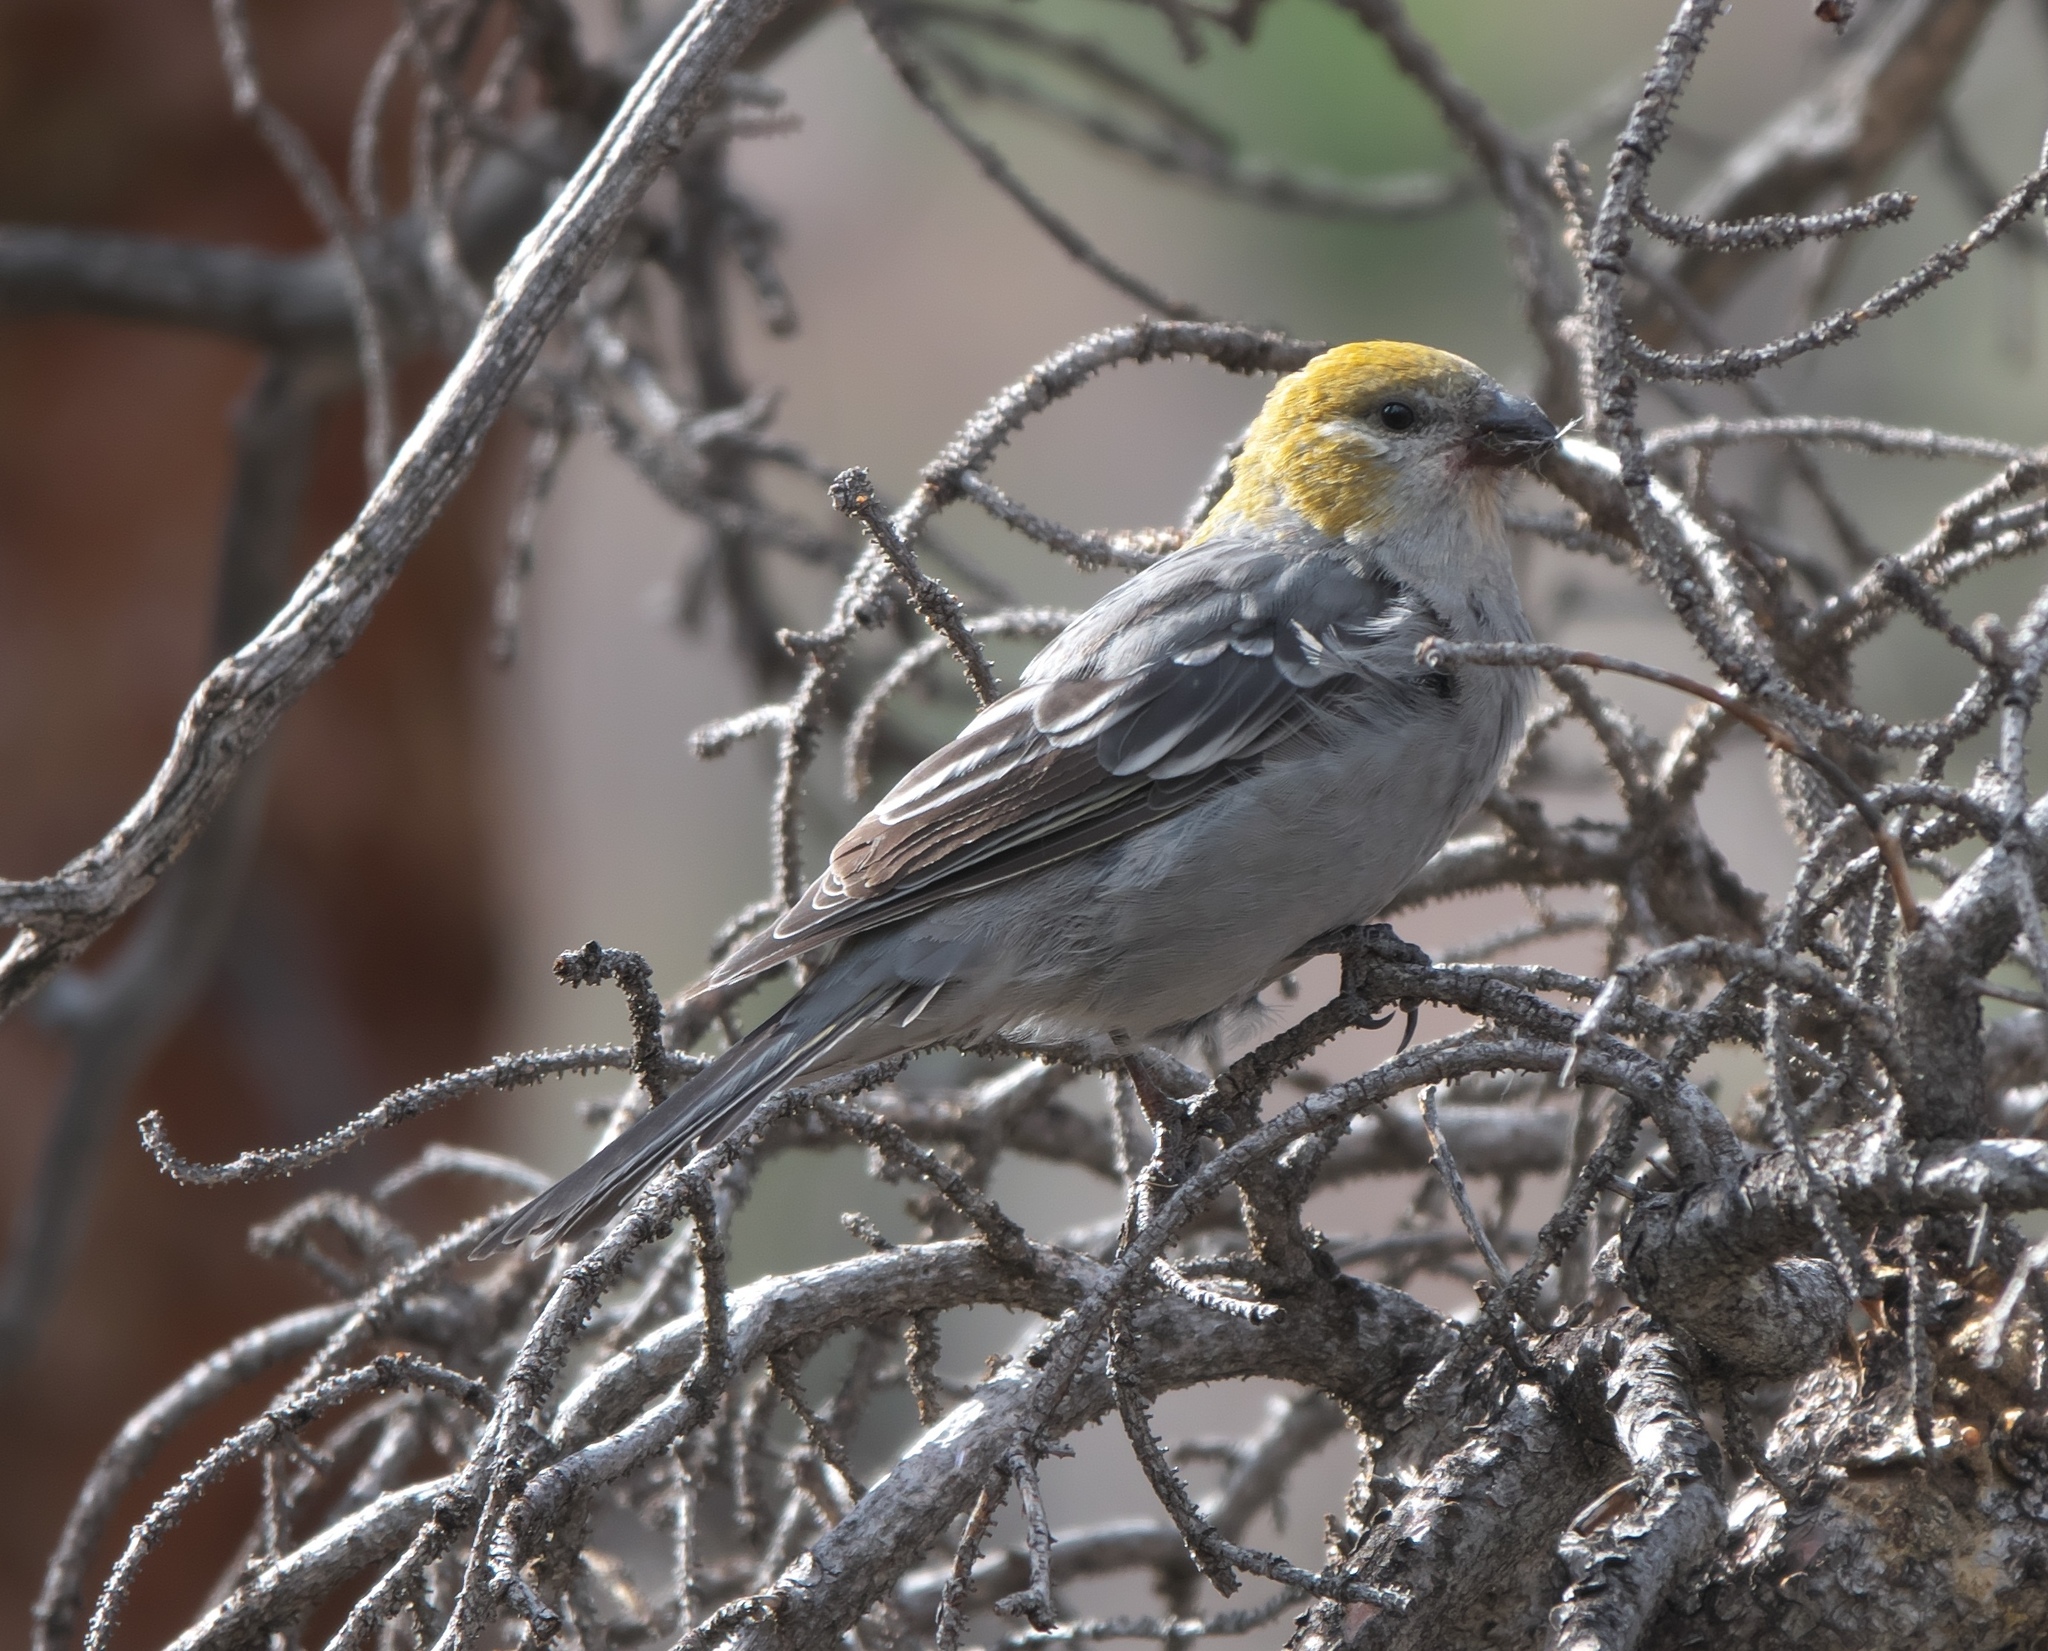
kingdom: Animalia
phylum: Chordata
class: Aves
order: Passeriformes
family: Fringillidae
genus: Pinicola
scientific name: Pinicola enucleator
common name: Pine grosbeak
